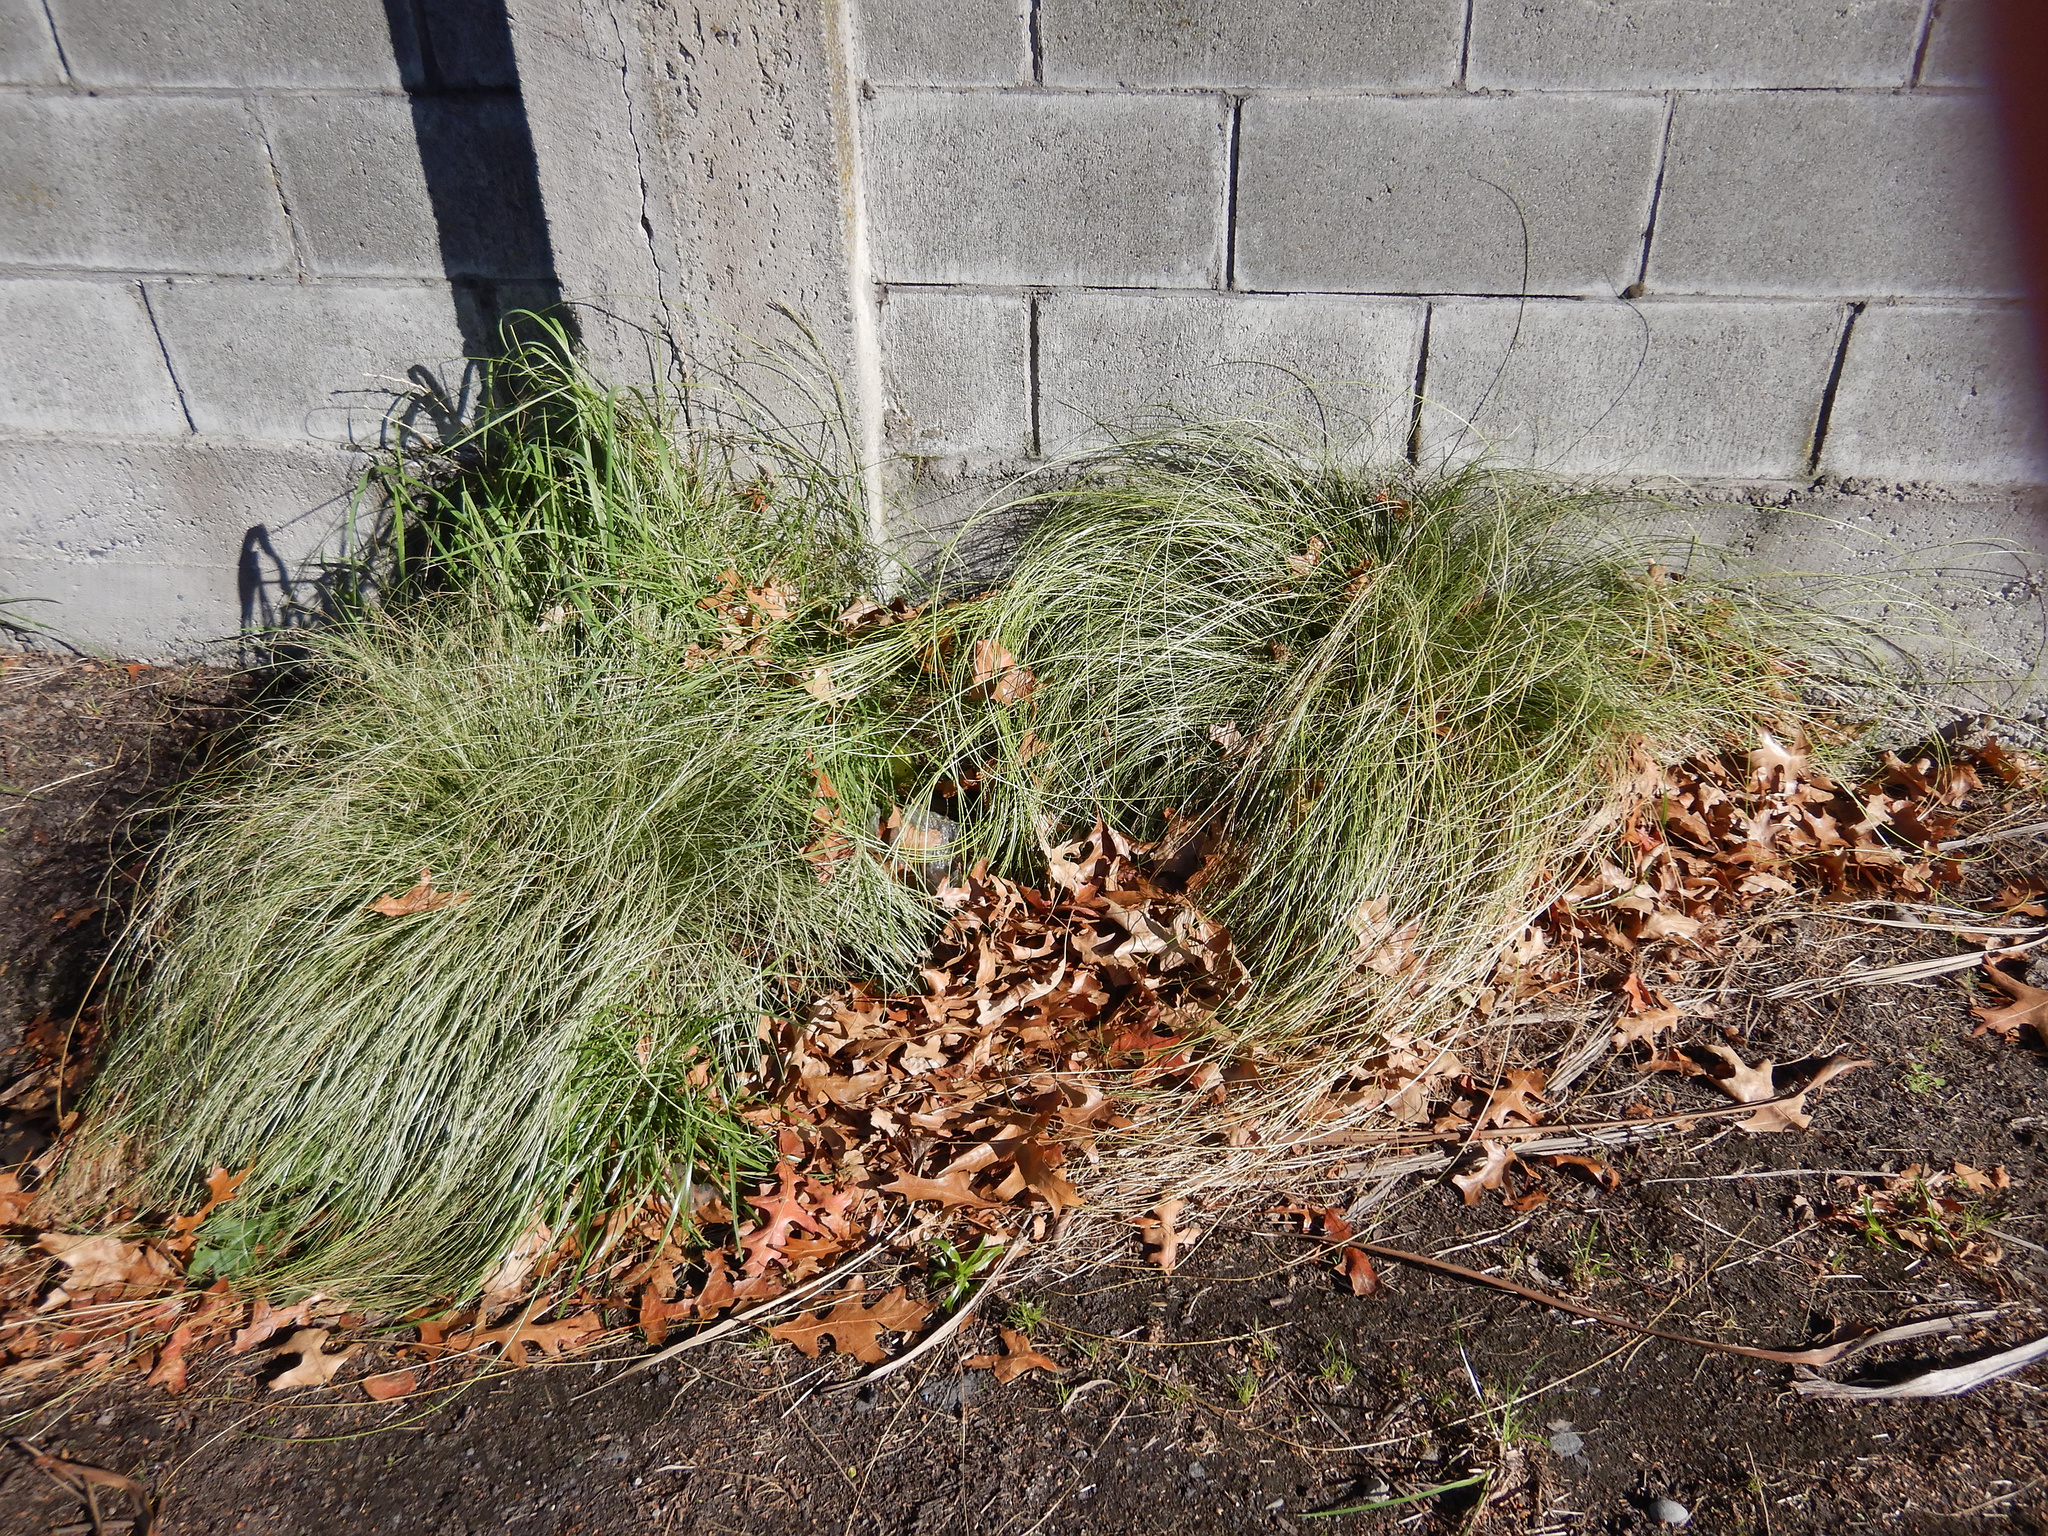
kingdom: Plantae
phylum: Tracheophyta
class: Liliopsida
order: Poales
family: Cyperaceae
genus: Carex
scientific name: Carex comans
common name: Longwood tussock
